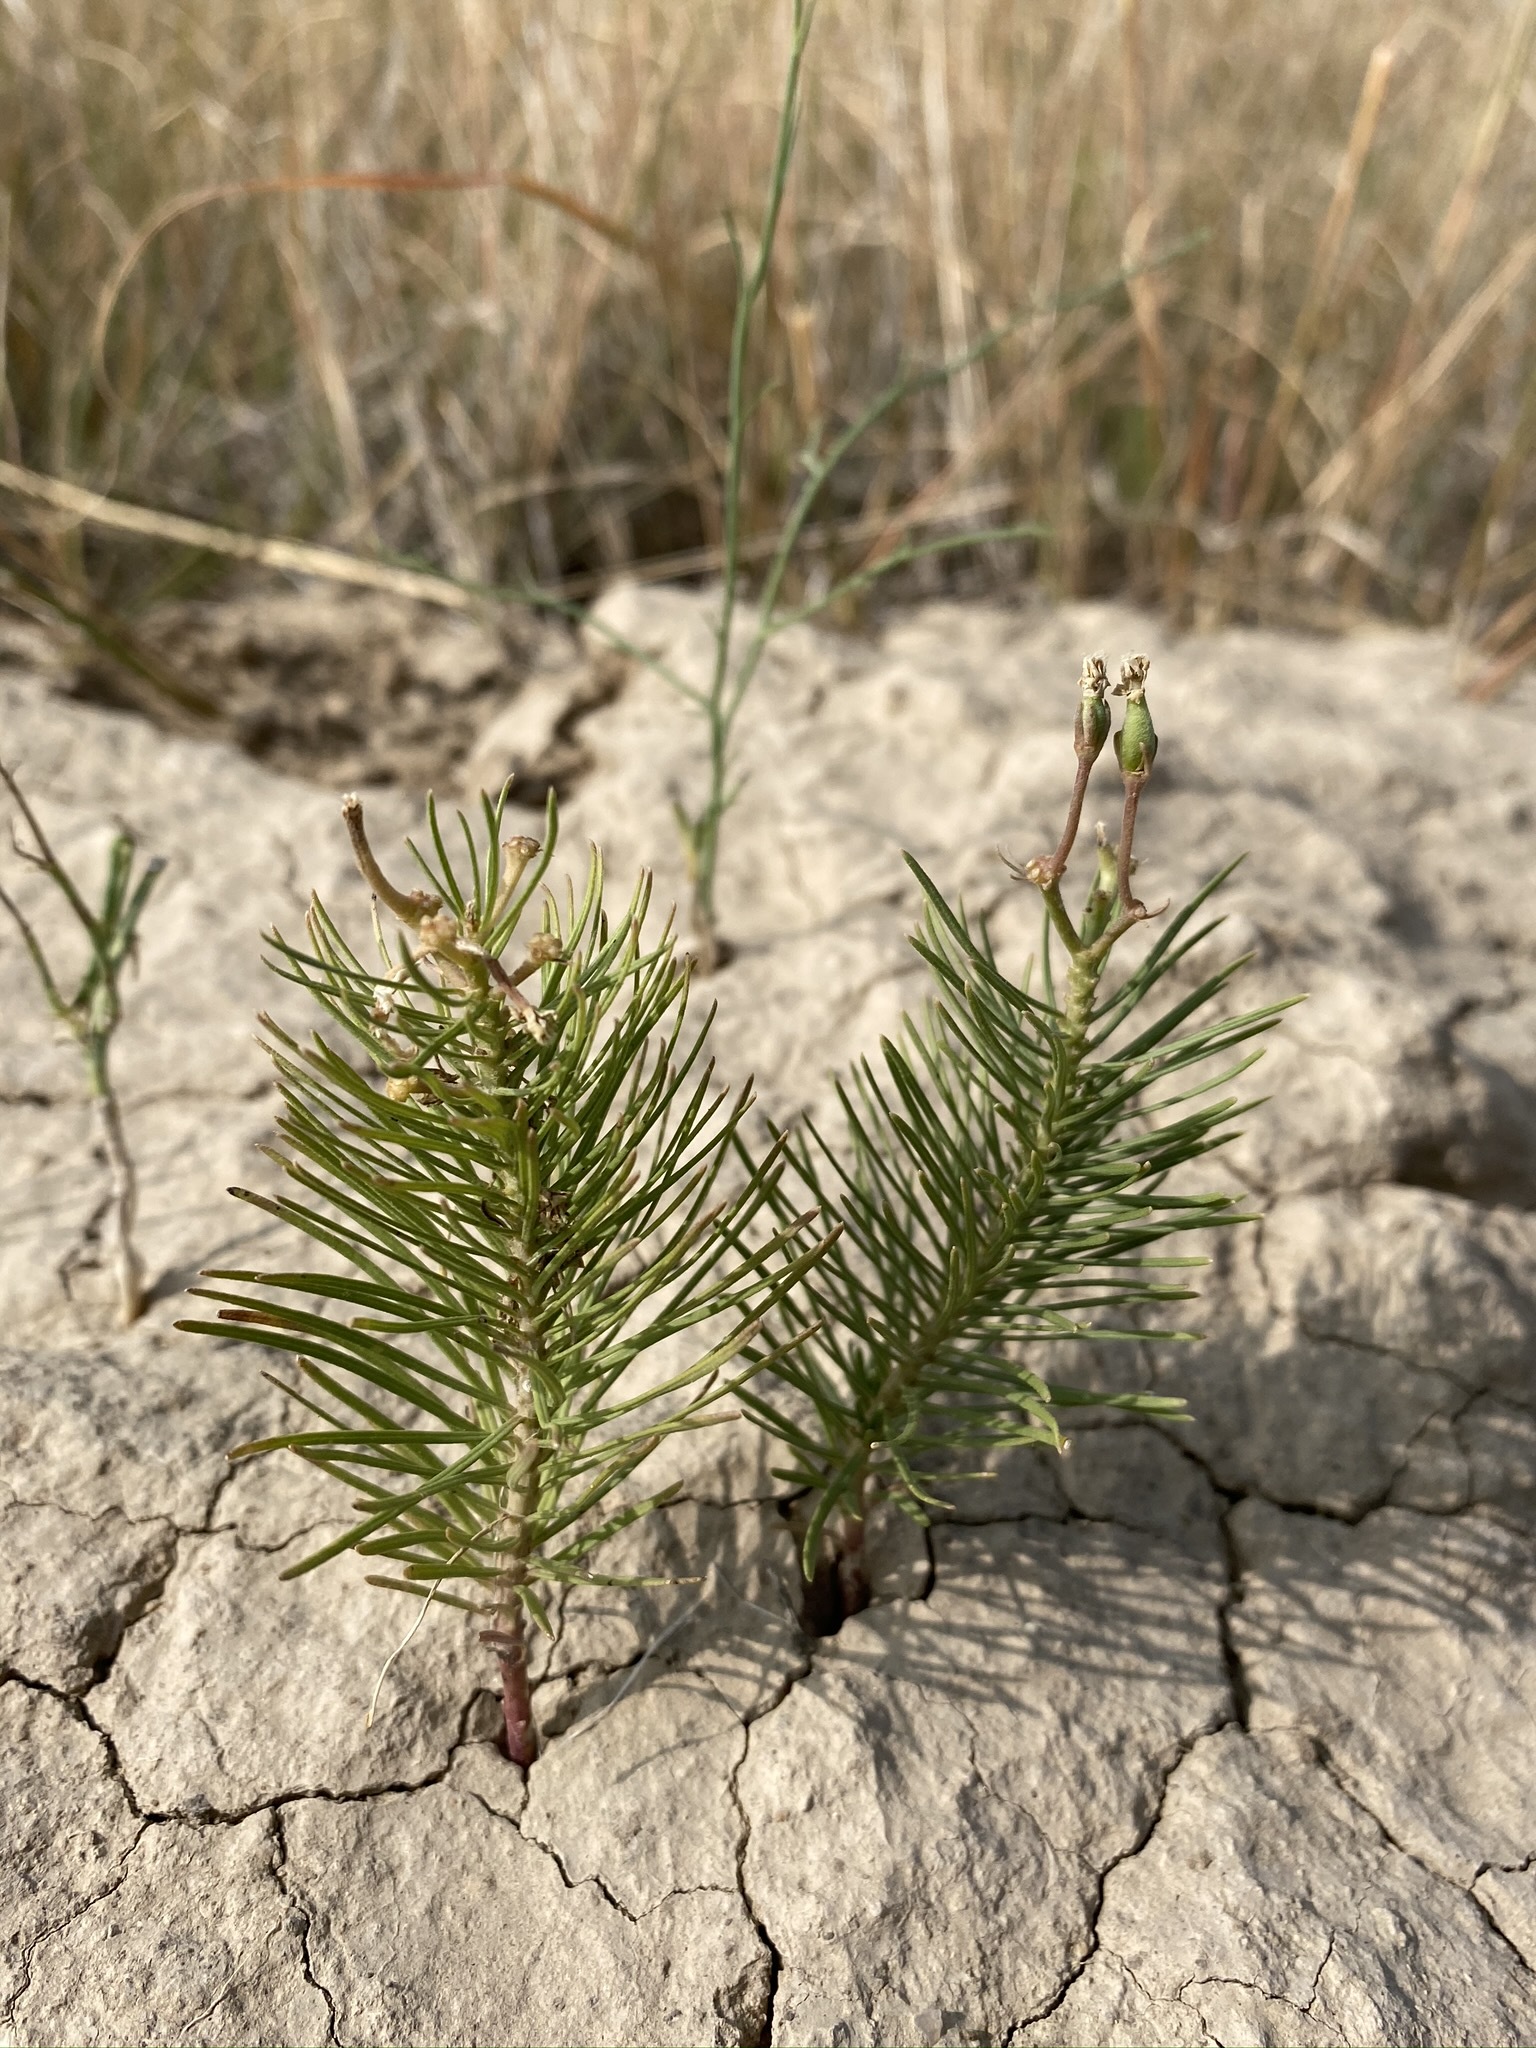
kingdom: Plantae
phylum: Tracheophyta
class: Magnoliopsida
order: Gentianales
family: Apocynaceae
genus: Asclepias
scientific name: Asclepias pumila
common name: Dwarf milkweed
